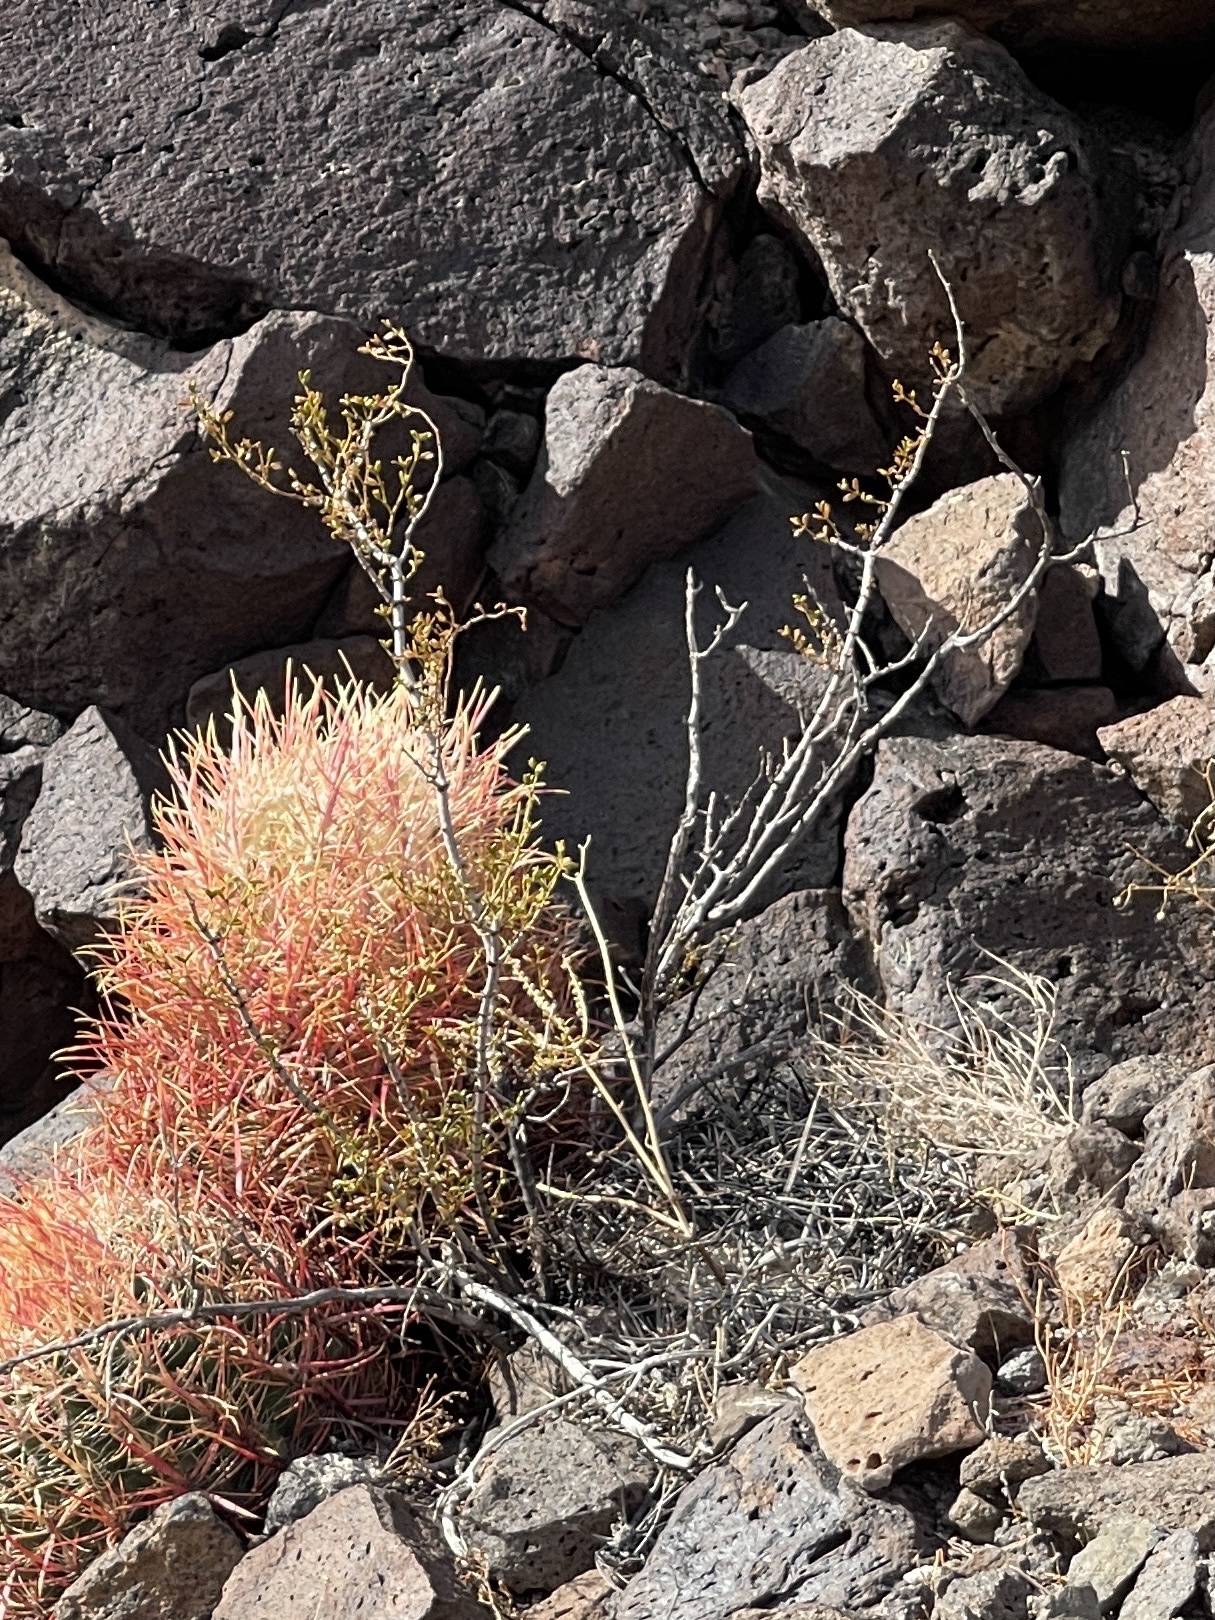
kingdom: Plantae
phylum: Tracheophyta
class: Magnoliopsida
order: Zygophyllales
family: Zygophyllaceae
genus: Larrea
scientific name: Larrea tridentata
